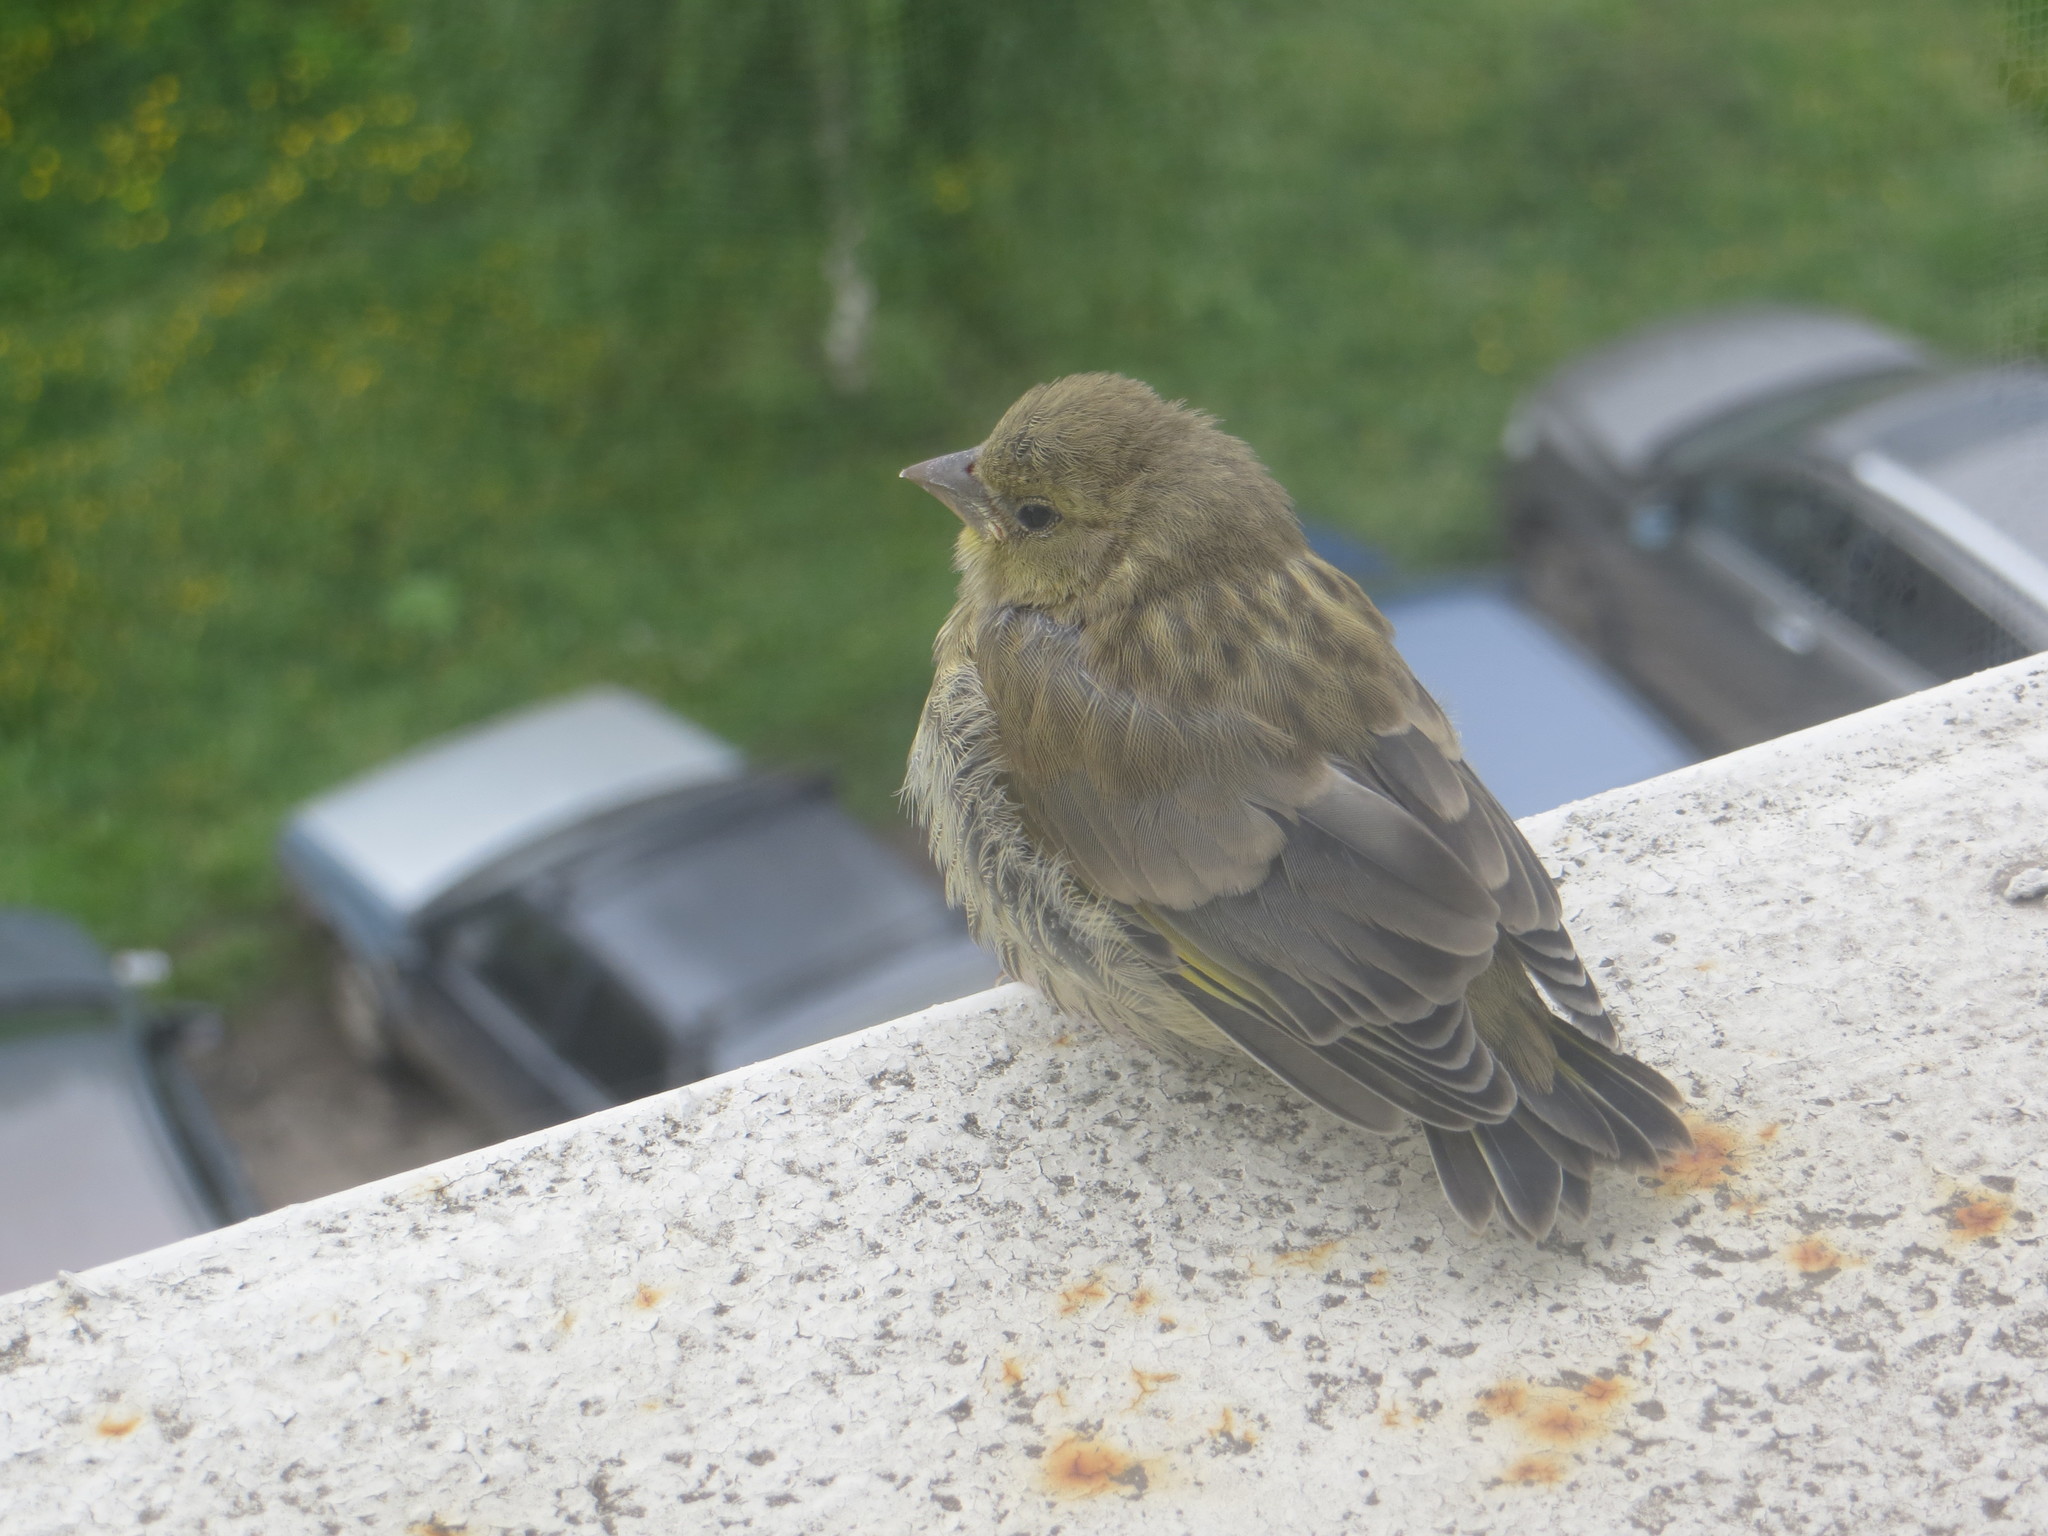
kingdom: Plantae
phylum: Tracheophyta
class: Liliopsida
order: Poales
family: Poaceae
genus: Chloris
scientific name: Chloris chloris
